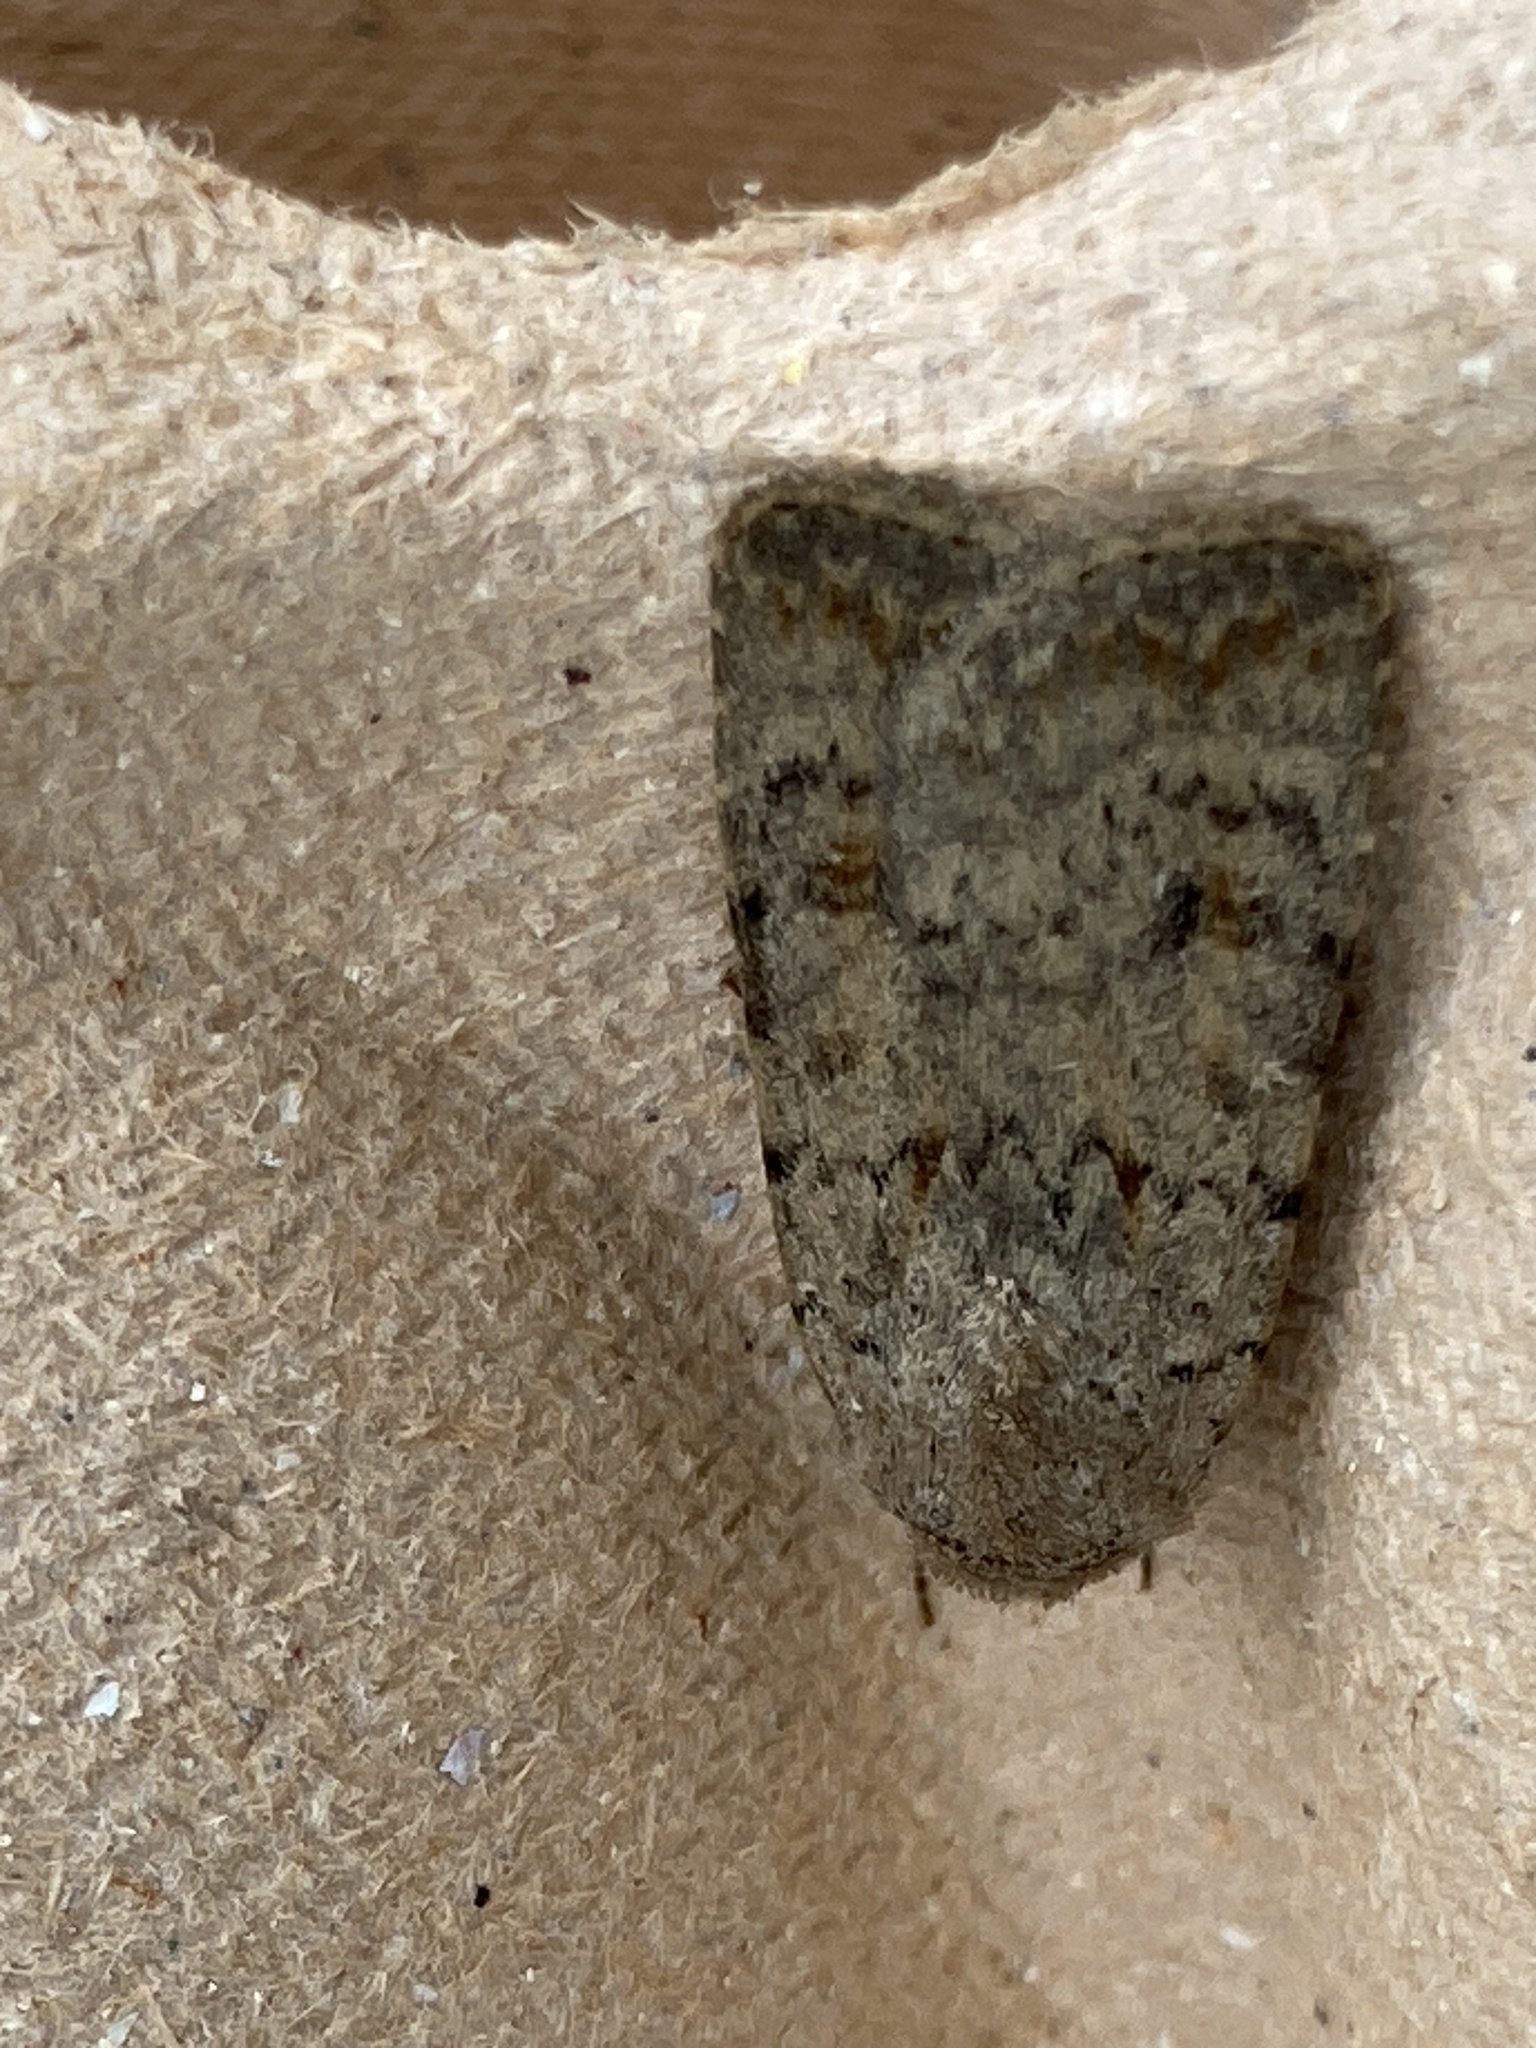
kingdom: Animalia
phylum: Arthropoda
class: Insecta
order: Lepidoptera
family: Noctuidae
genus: Caradrina
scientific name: Caradrina clavipalpis
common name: Pale mottled willow
